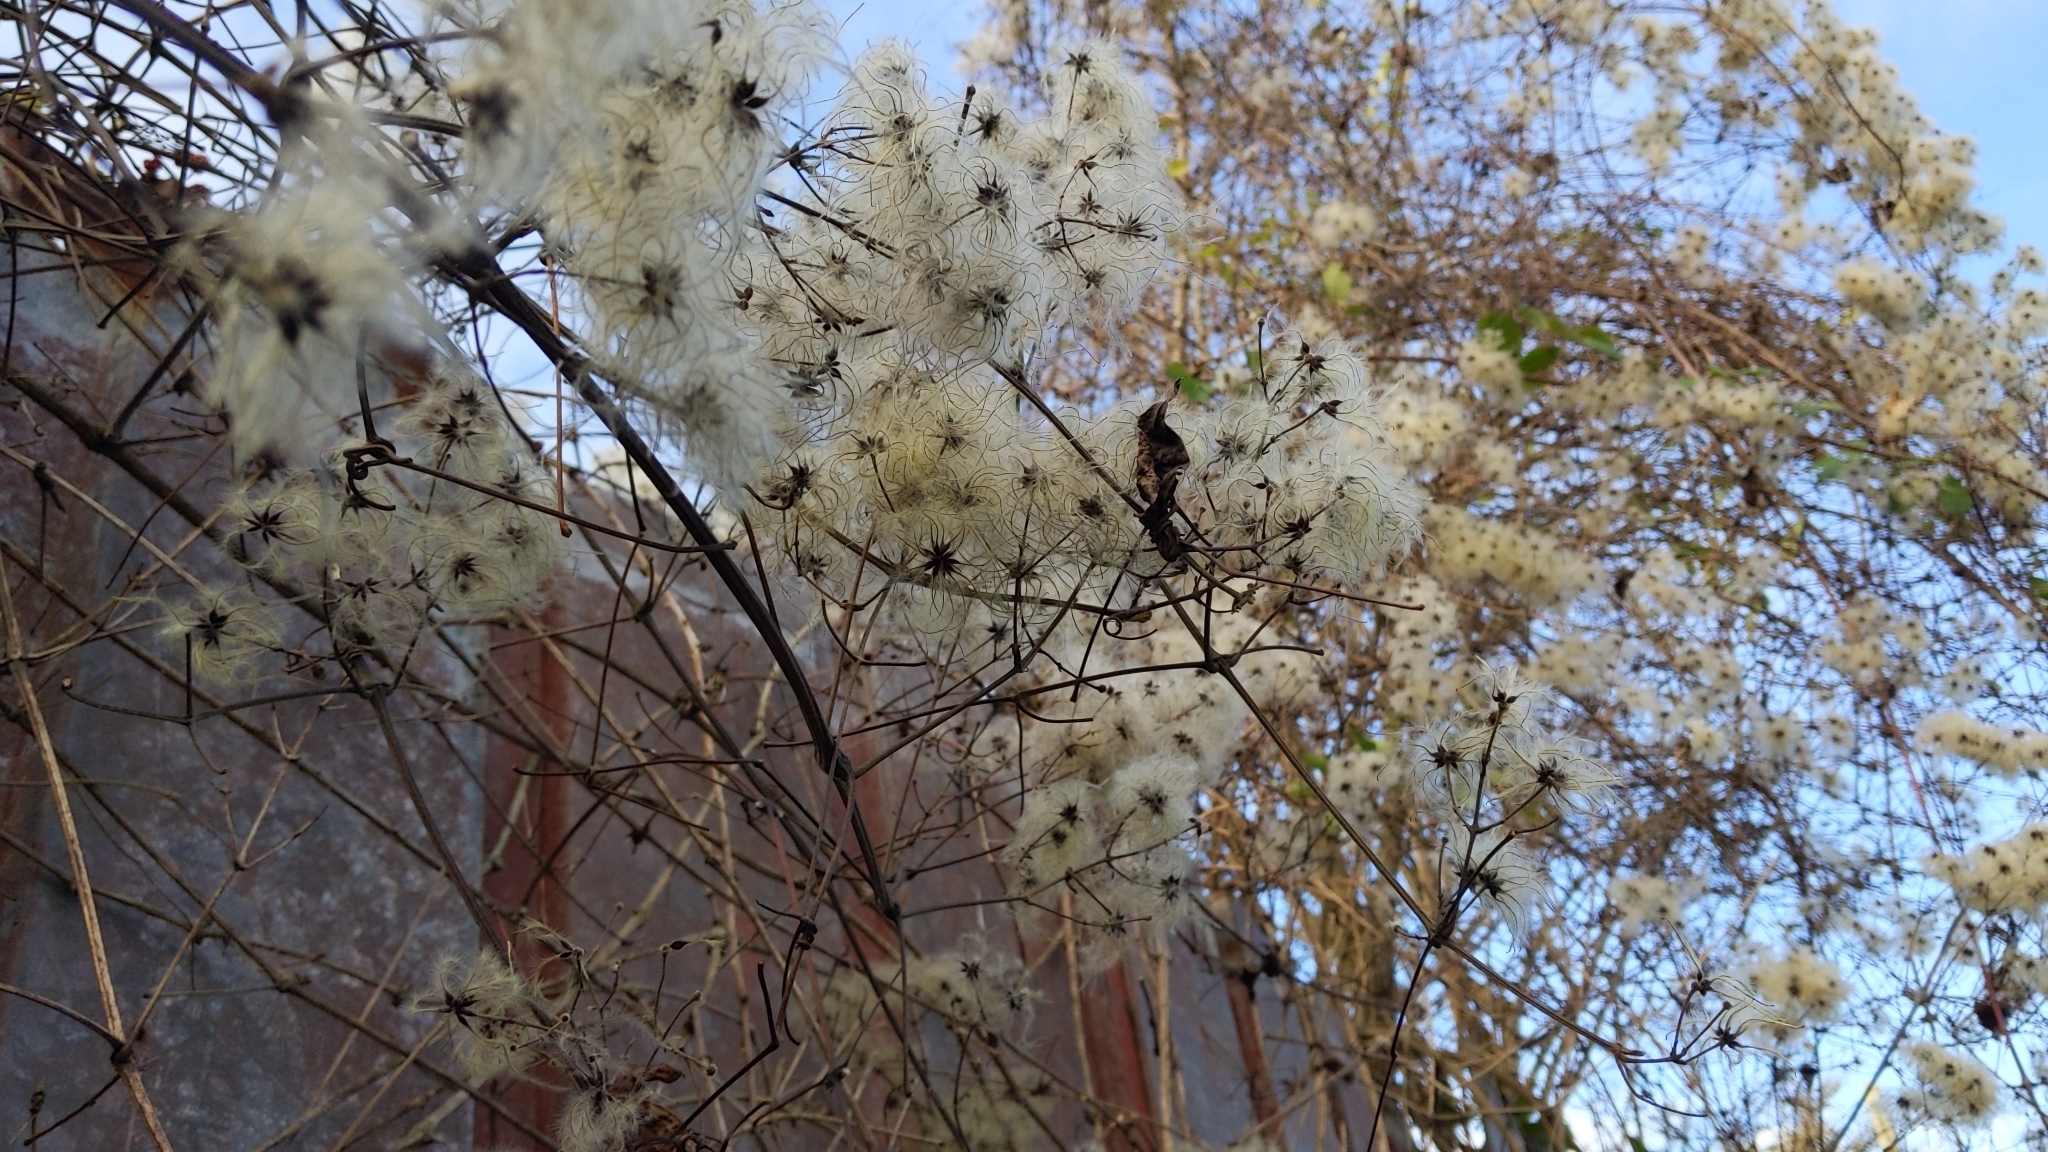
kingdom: Plantae
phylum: Tracheophyta
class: Magnoliopsida
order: Ranunculales
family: Ranunculaceae
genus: Clematis
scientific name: Clematis vitalba
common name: Evergreen clematis
